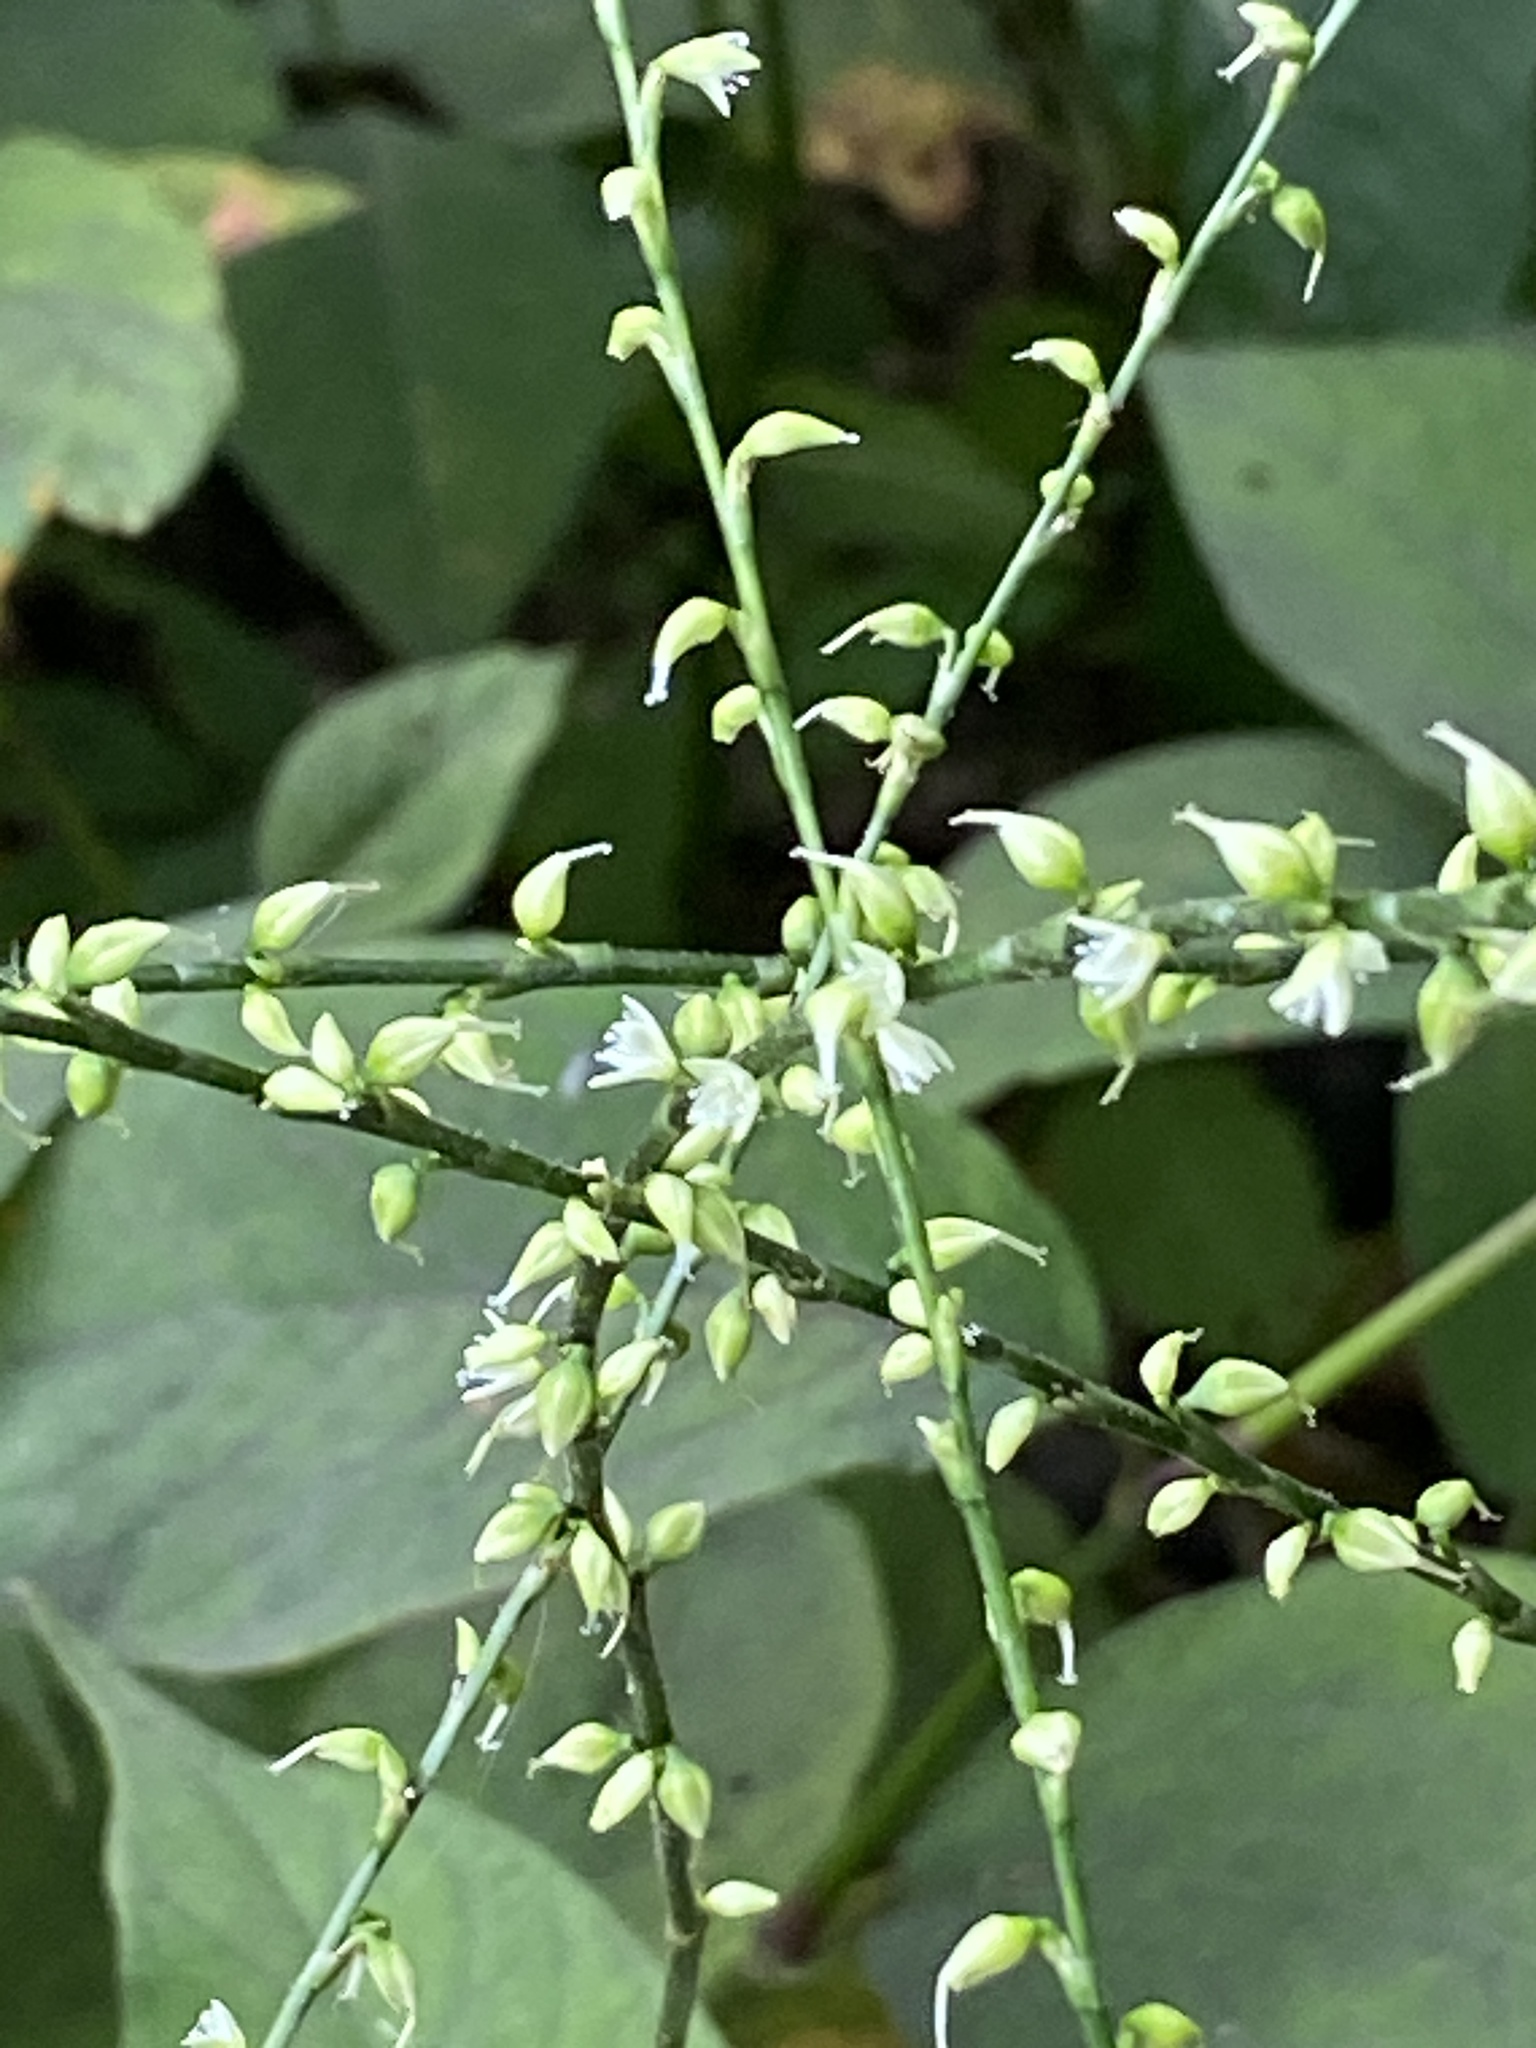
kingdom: Plantae
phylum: Tracheophyta
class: Magnoliopsida
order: Caryophyllales
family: Polygonaceae
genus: Persicaria
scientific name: Persicaria virginiana
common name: Jumpseed
